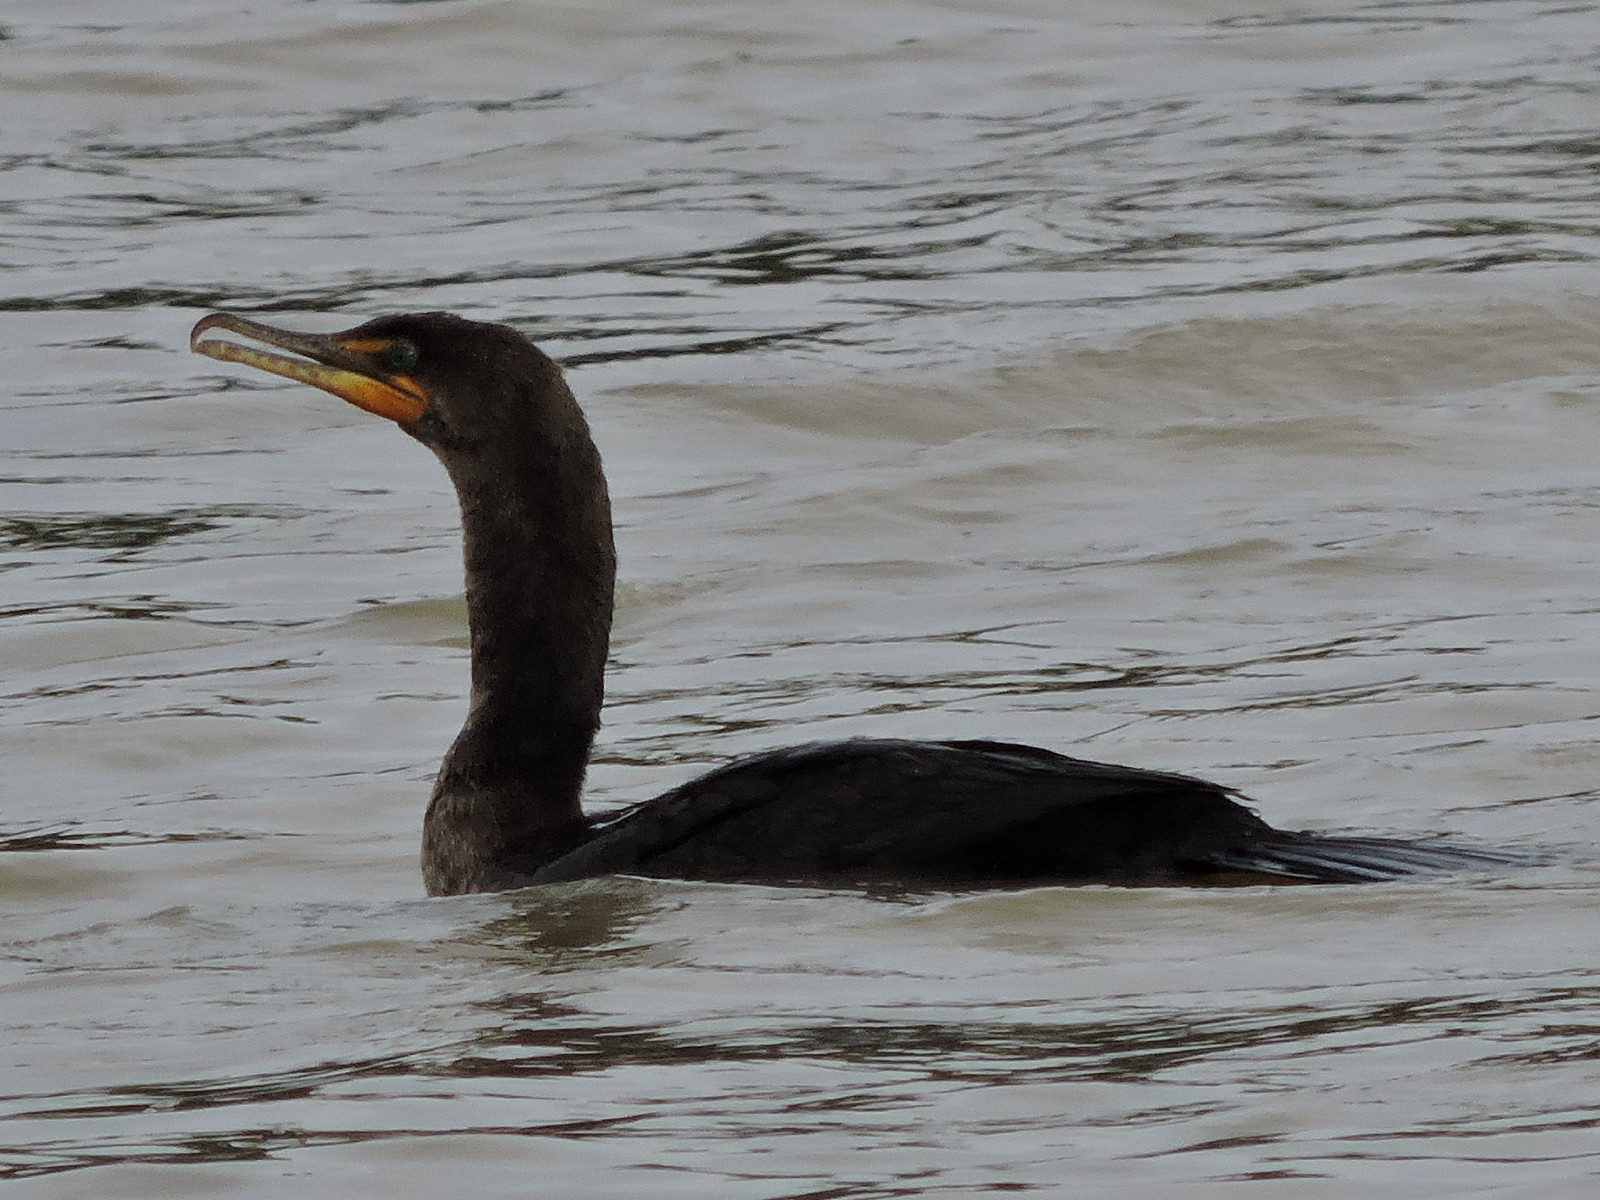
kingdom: Animalia
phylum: Chordata
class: Aves
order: Suliformes
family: Phalacrocoracidae
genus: Phalacrocorax
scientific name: Phalacrocorax auritus
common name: Double-crested cormorant
